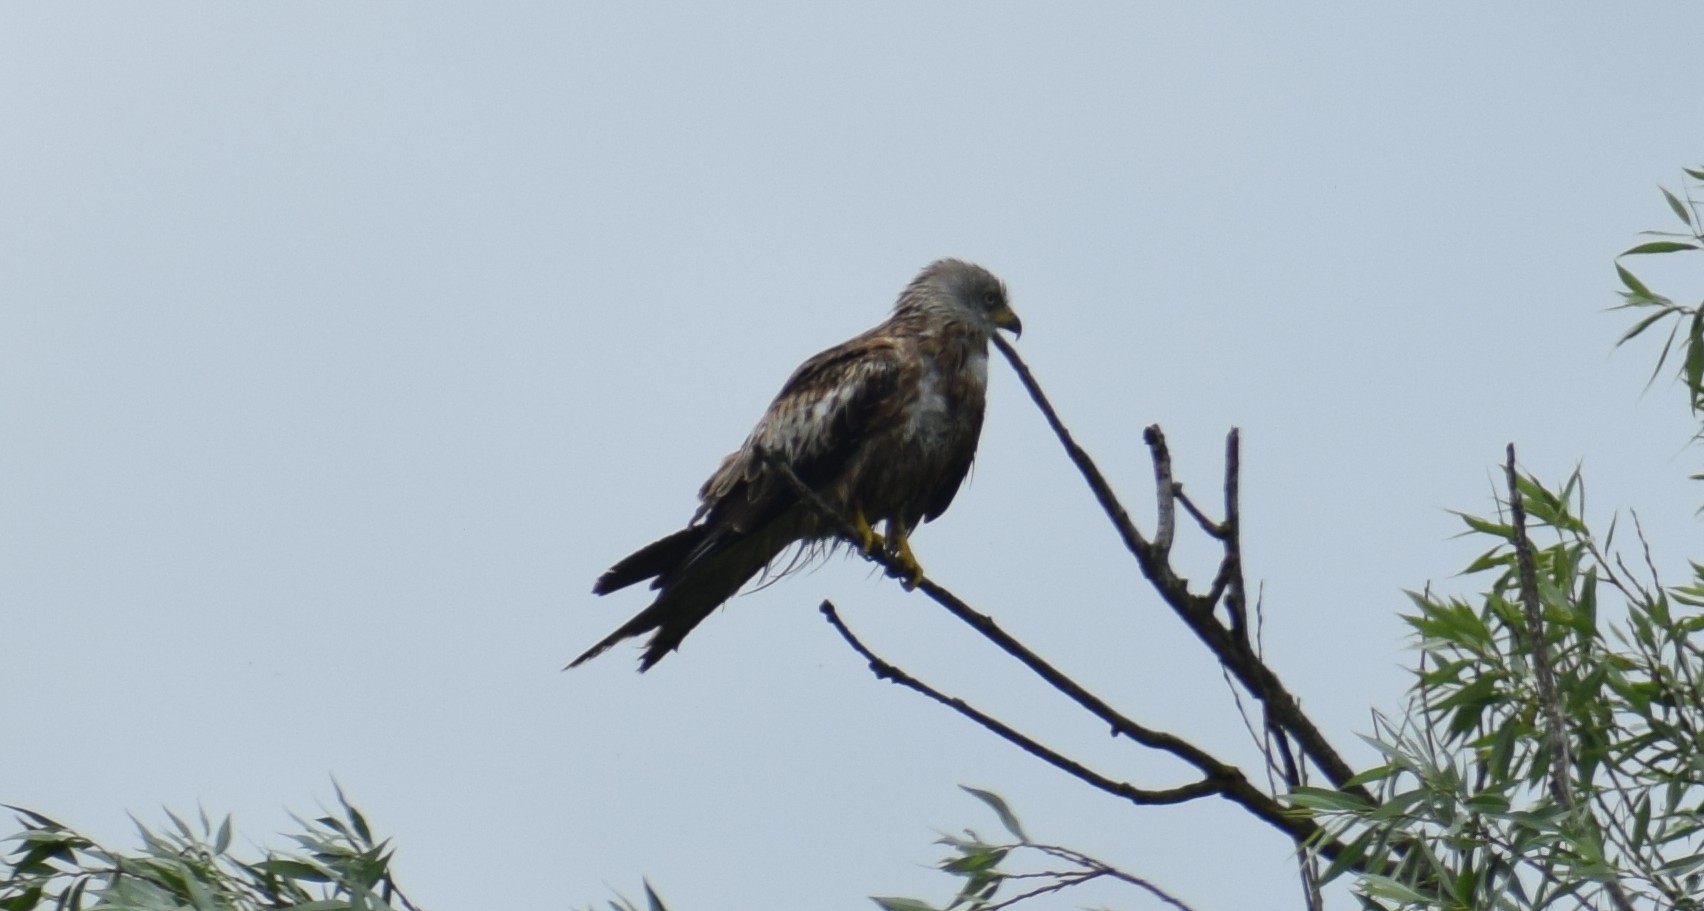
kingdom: Animalia
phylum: Chordata
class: Aves
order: Accipitriformes
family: Accipitridae
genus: Milvus
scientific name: Milvus milvus
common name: Red kite
